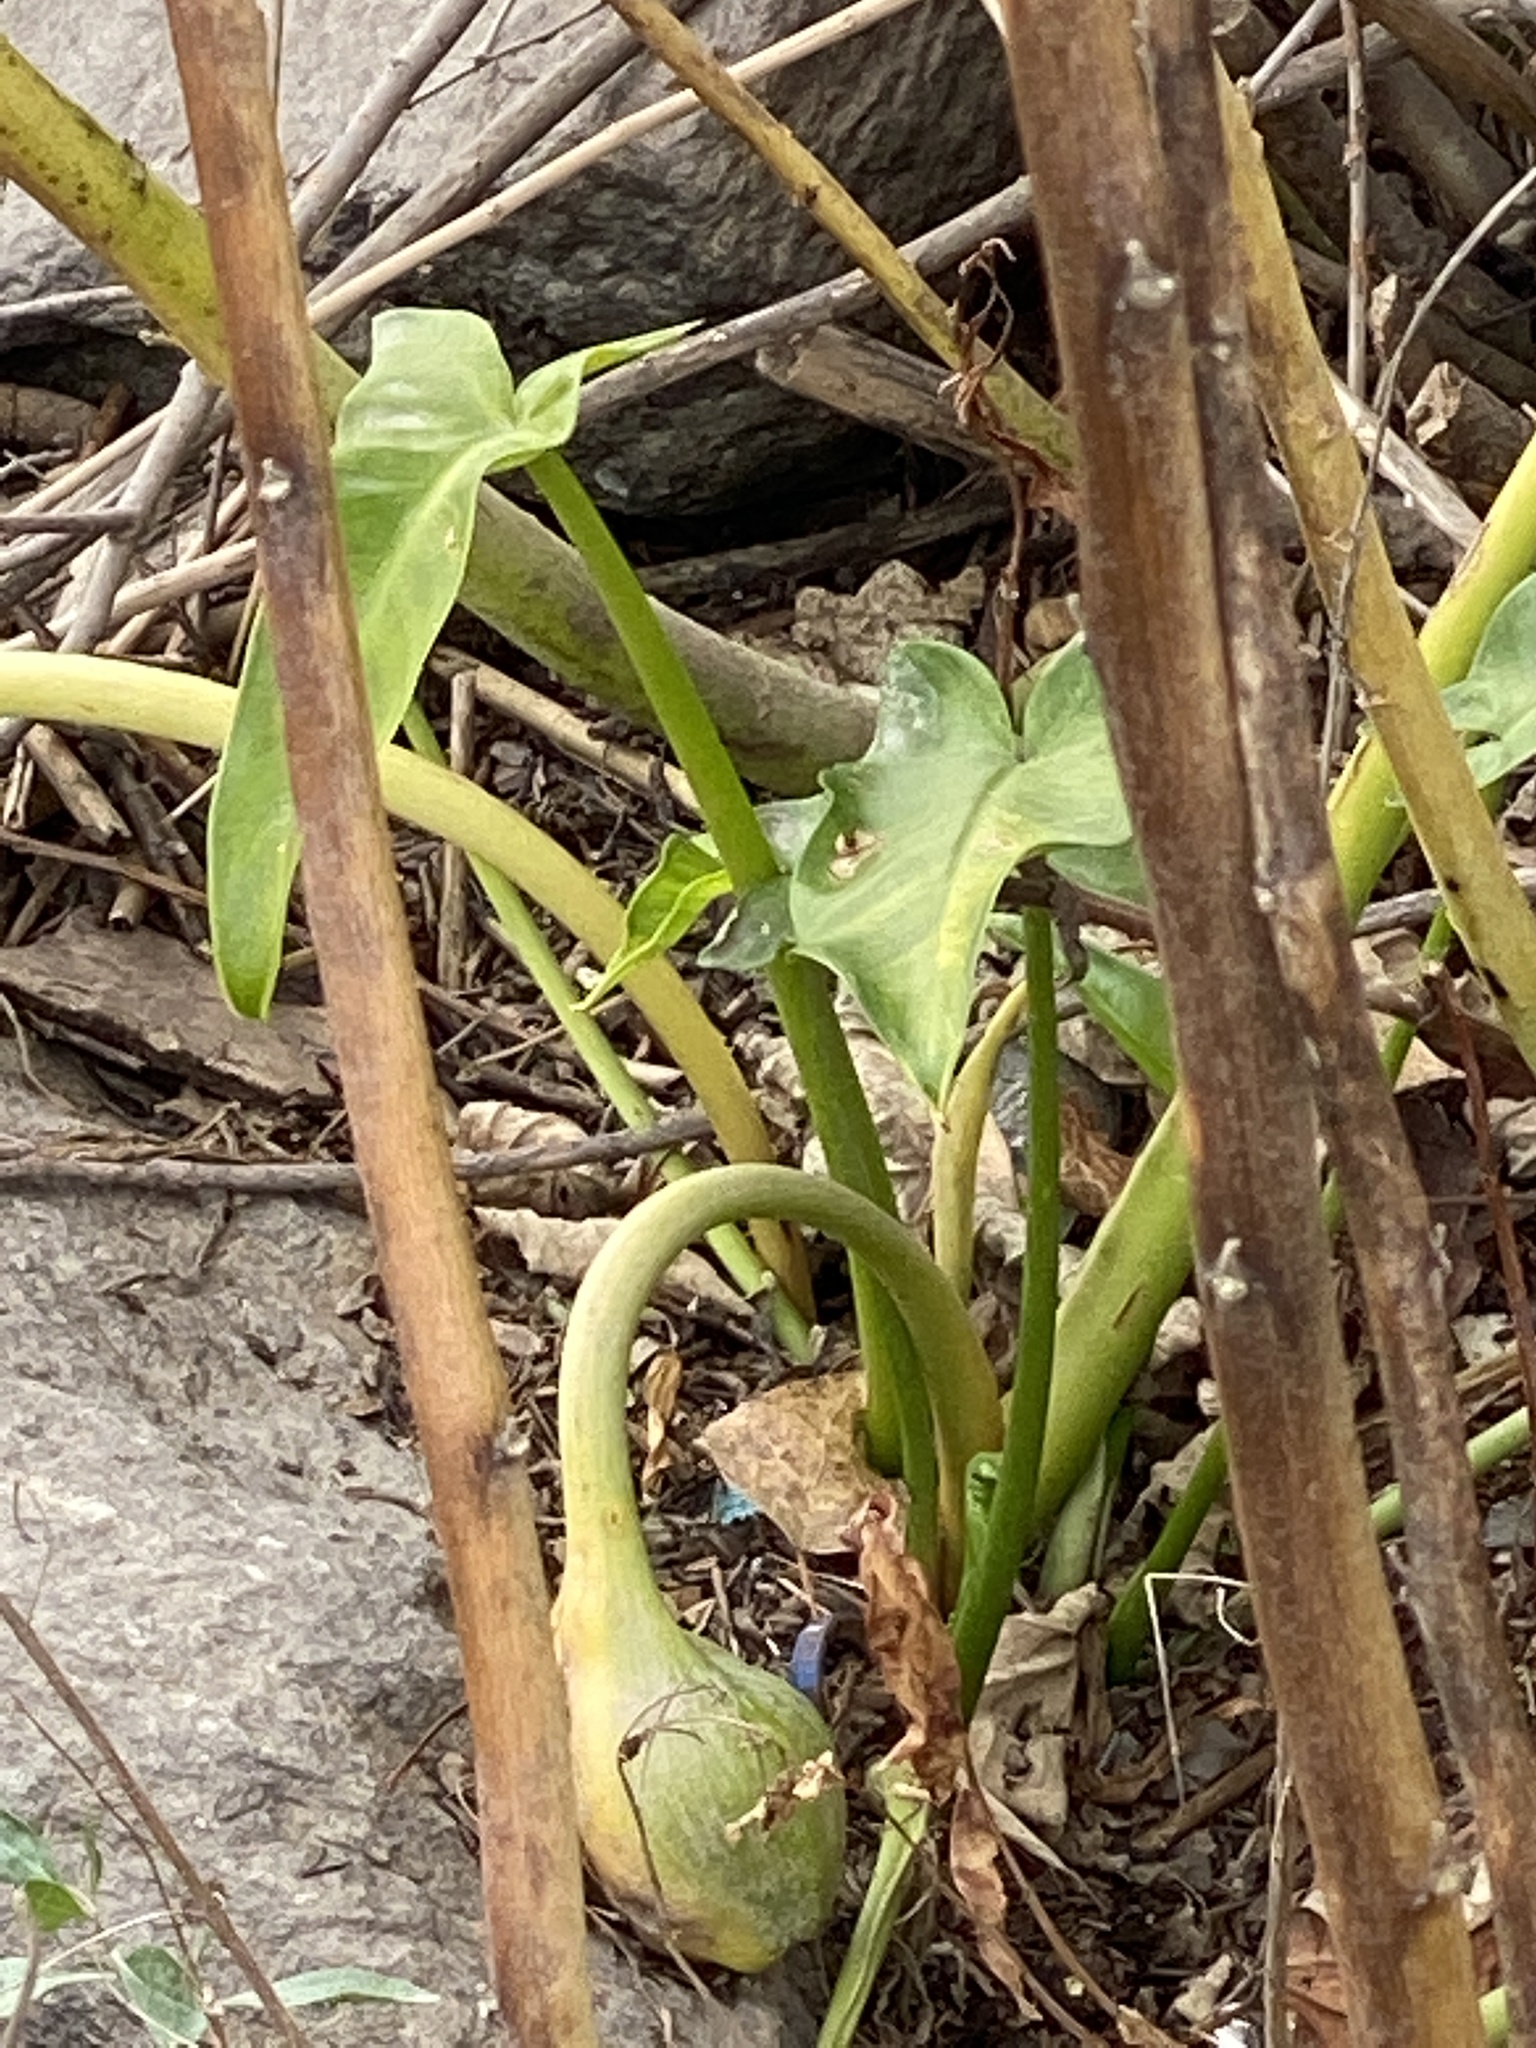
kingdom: Plantae
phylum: Tracheophyta
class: Liliopsida
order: Alismatales
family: Araceae
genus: Peltandra
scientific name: Peltandra virginica
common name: Arrow arum
